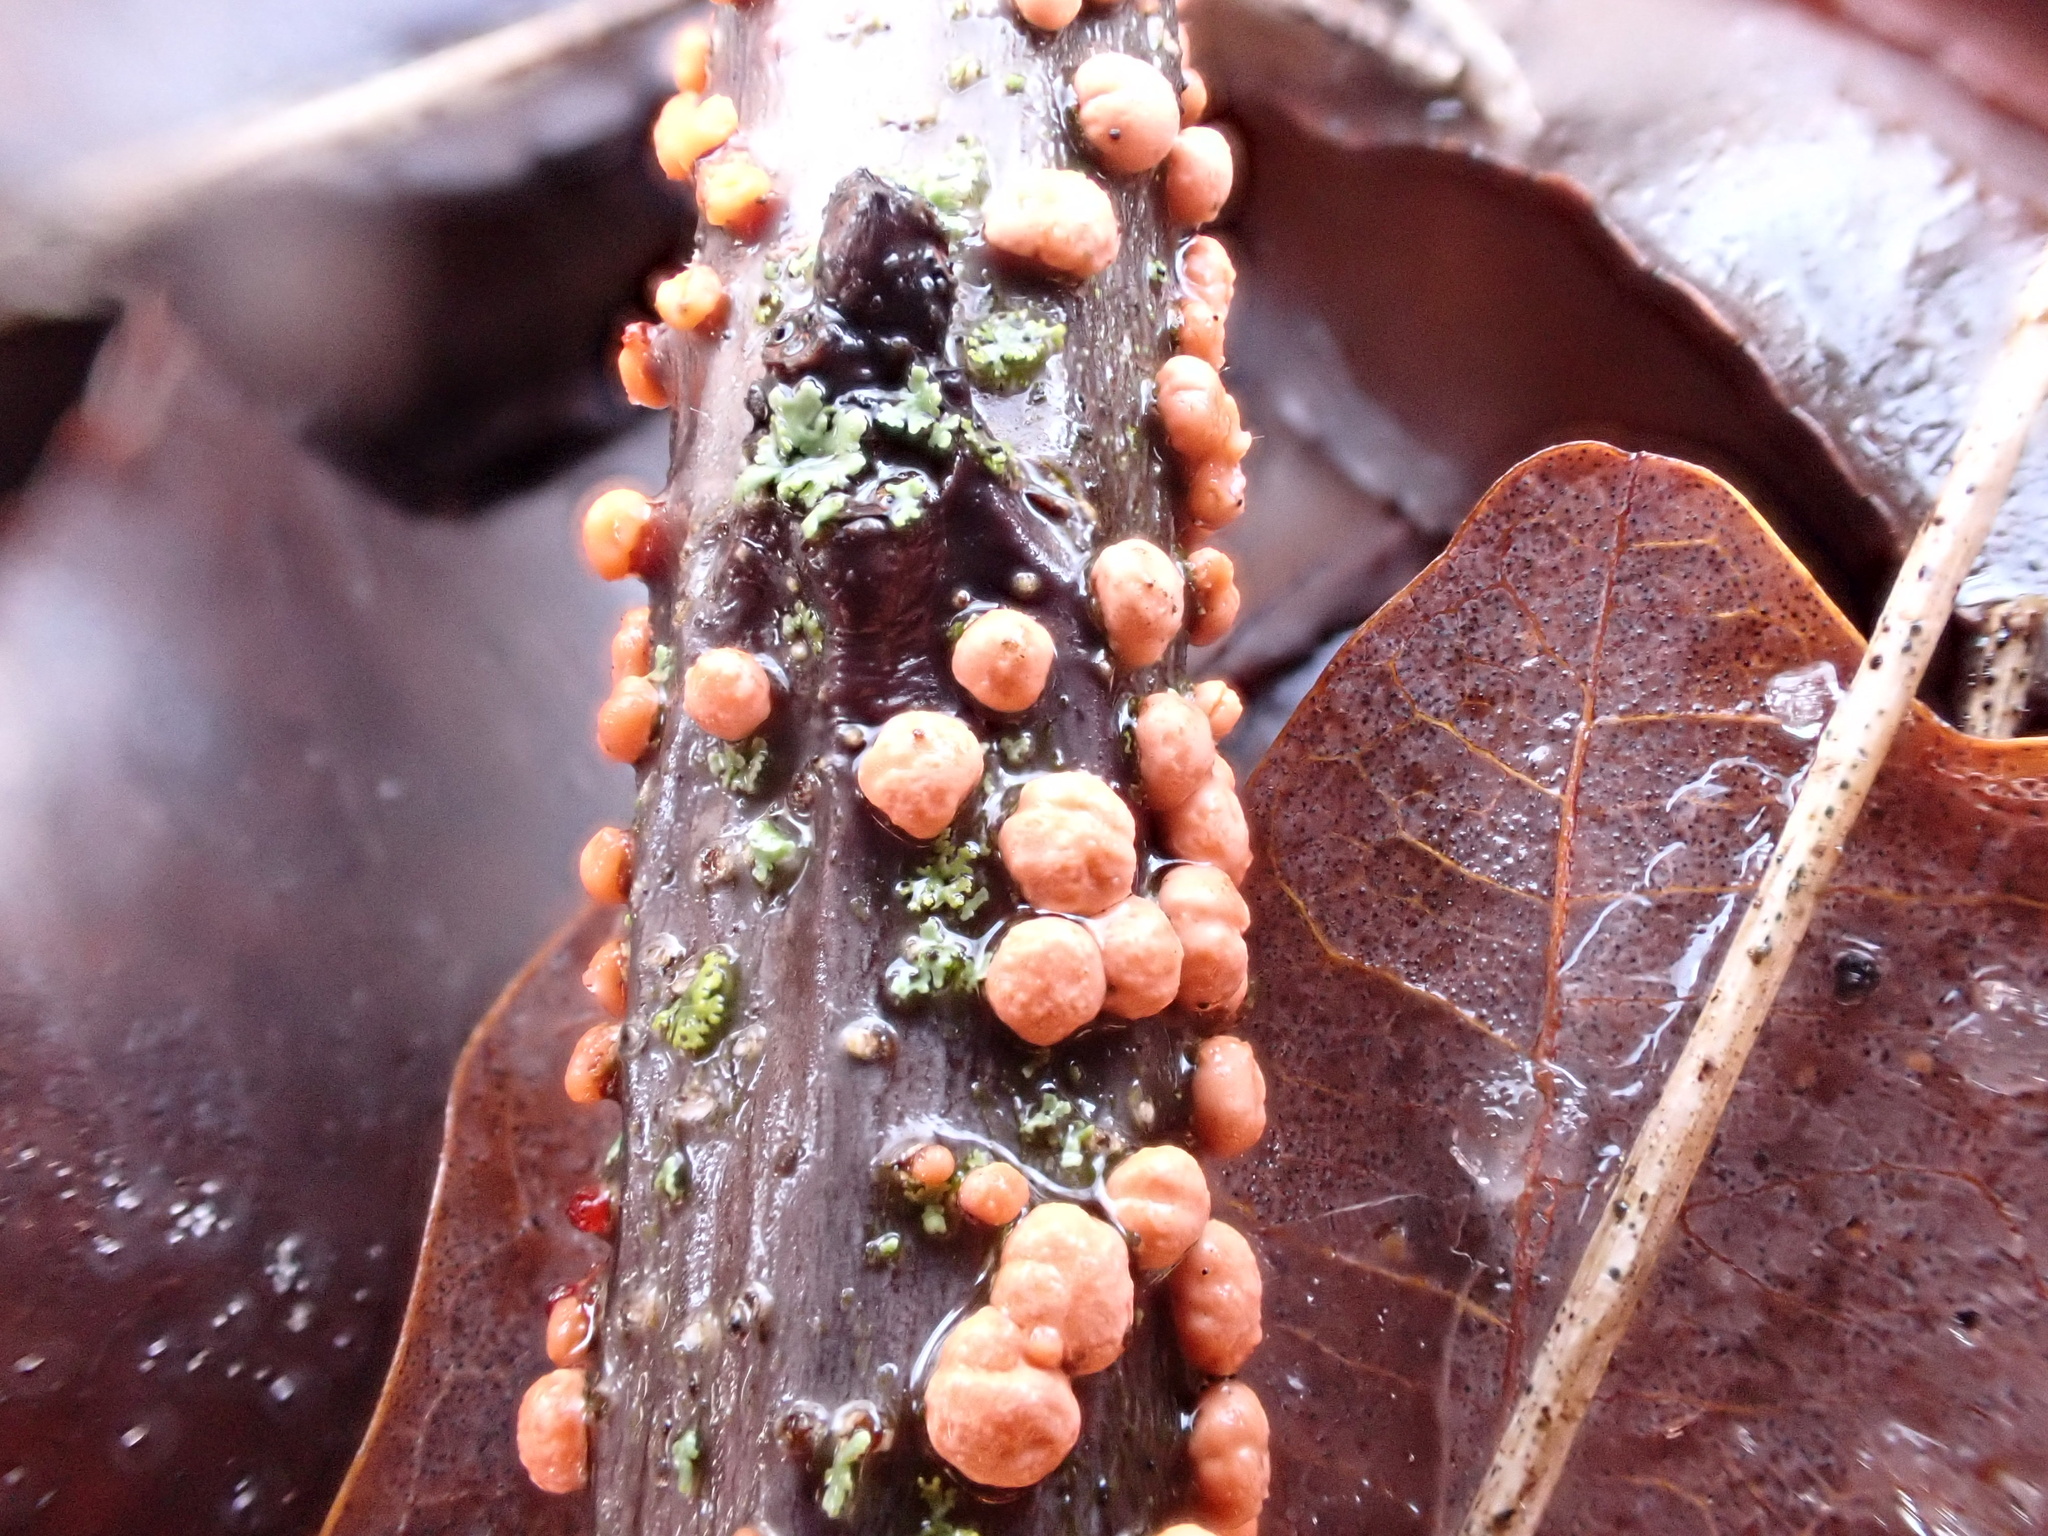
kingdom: Fungi
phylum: Ascomycota
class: Sordariomycetes
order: Hypocreales
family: Nectriaceae
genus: Nectria
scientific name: Nectria cinnabarina
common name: Coral spot
